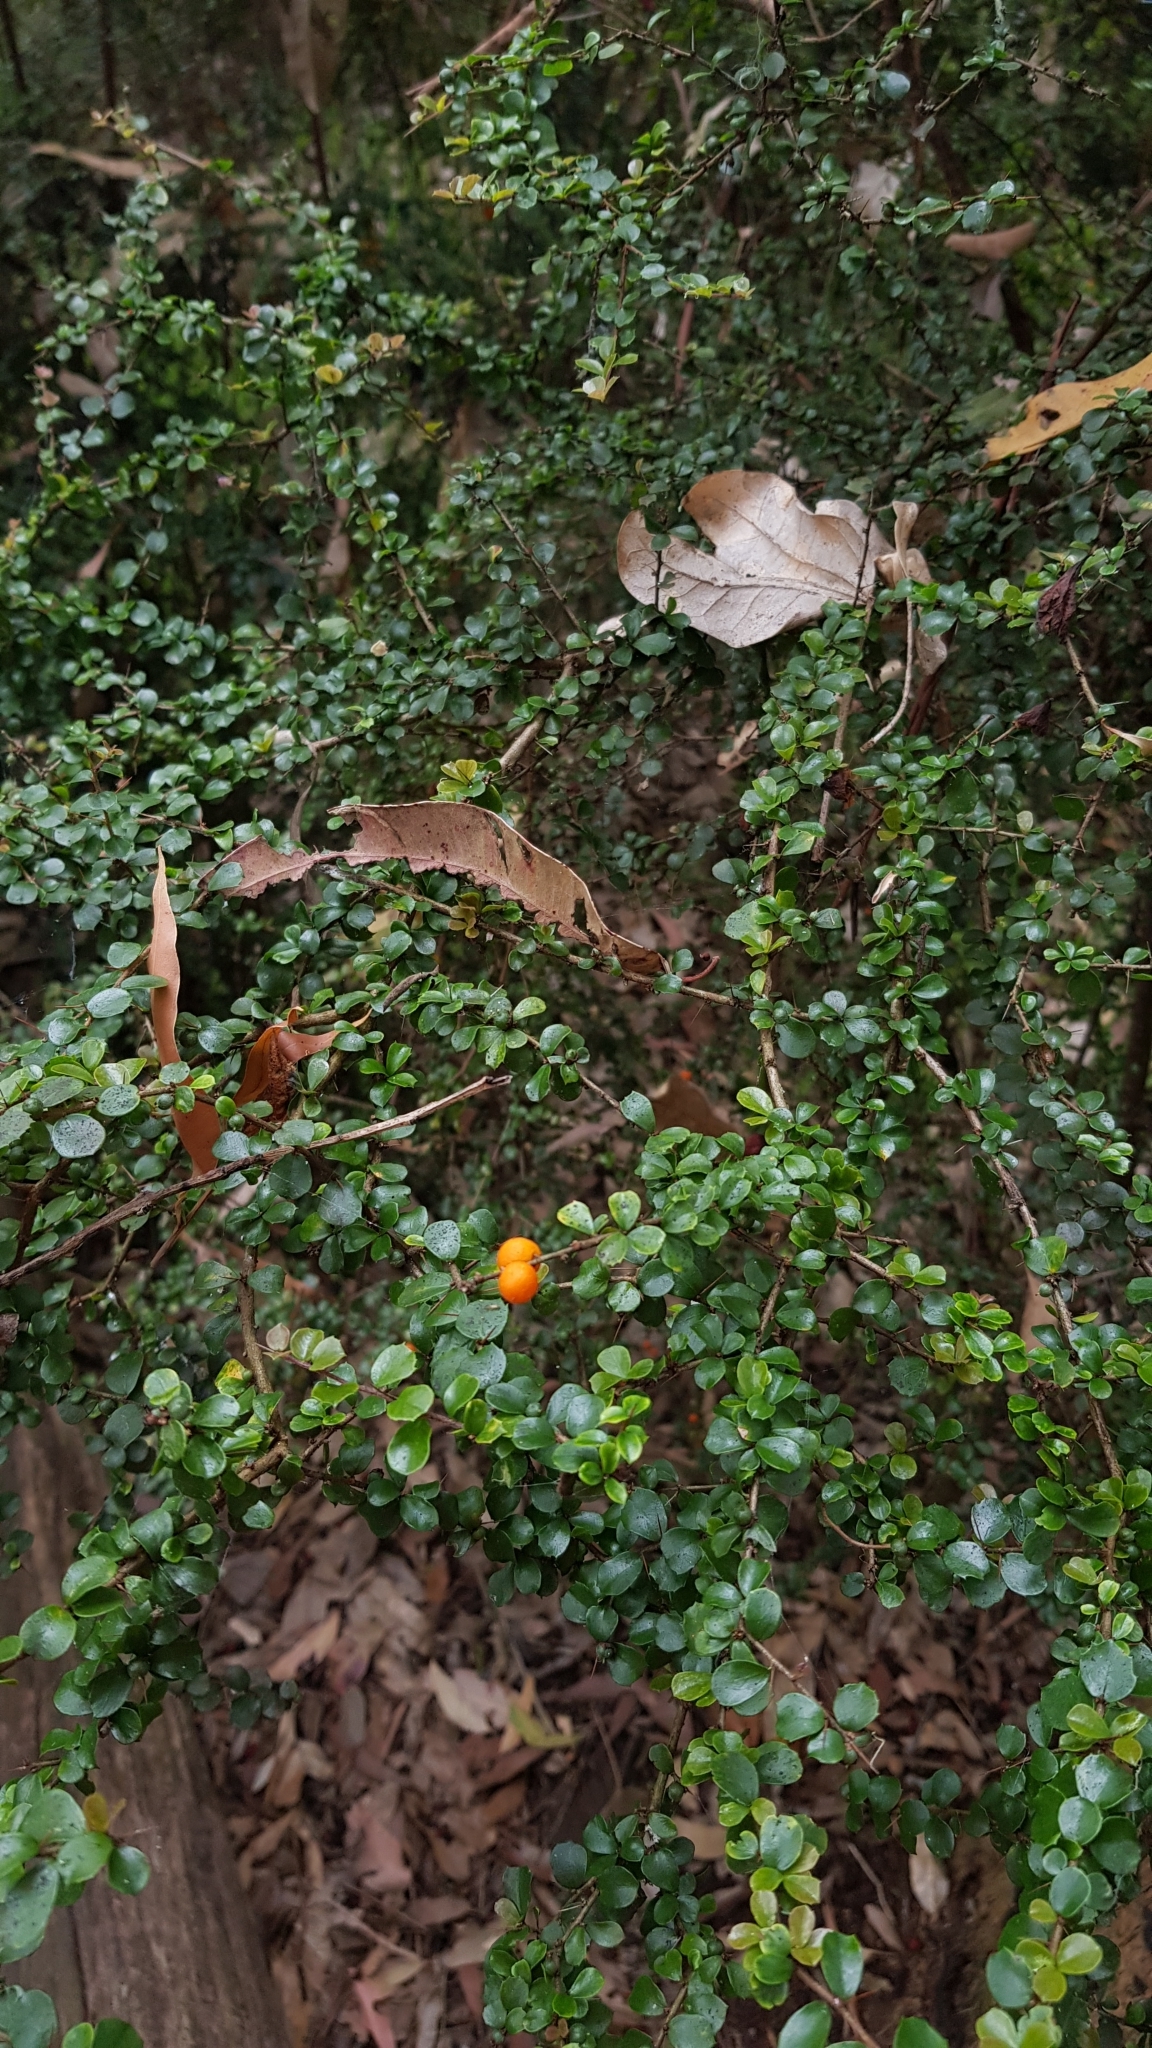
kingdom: Plantae
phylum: Tracheophyta
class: Magnoliopsida
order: Apiales
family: Pittosporaceae
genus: Pittosporum
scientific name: Pittosporum multiflorum
